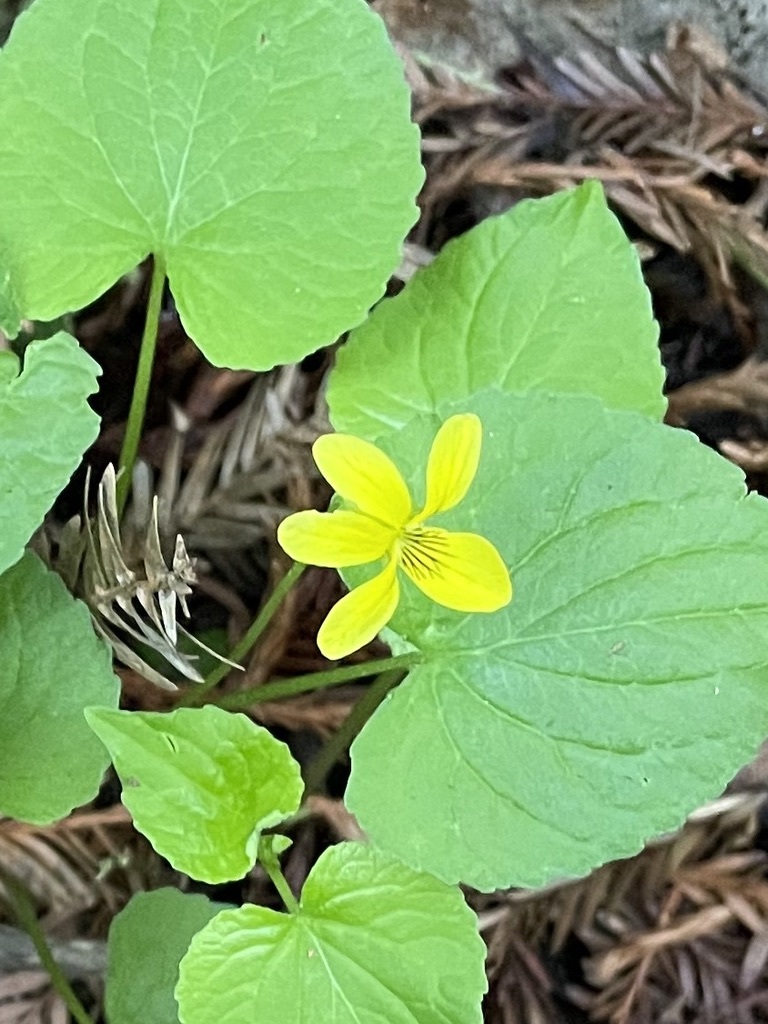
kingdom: Plantae
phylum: Tracheophyta
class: Magnoliopsida
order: Malpighiales
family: Violaceae
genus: Viola
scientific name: Viola glabella
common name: Stream violet
